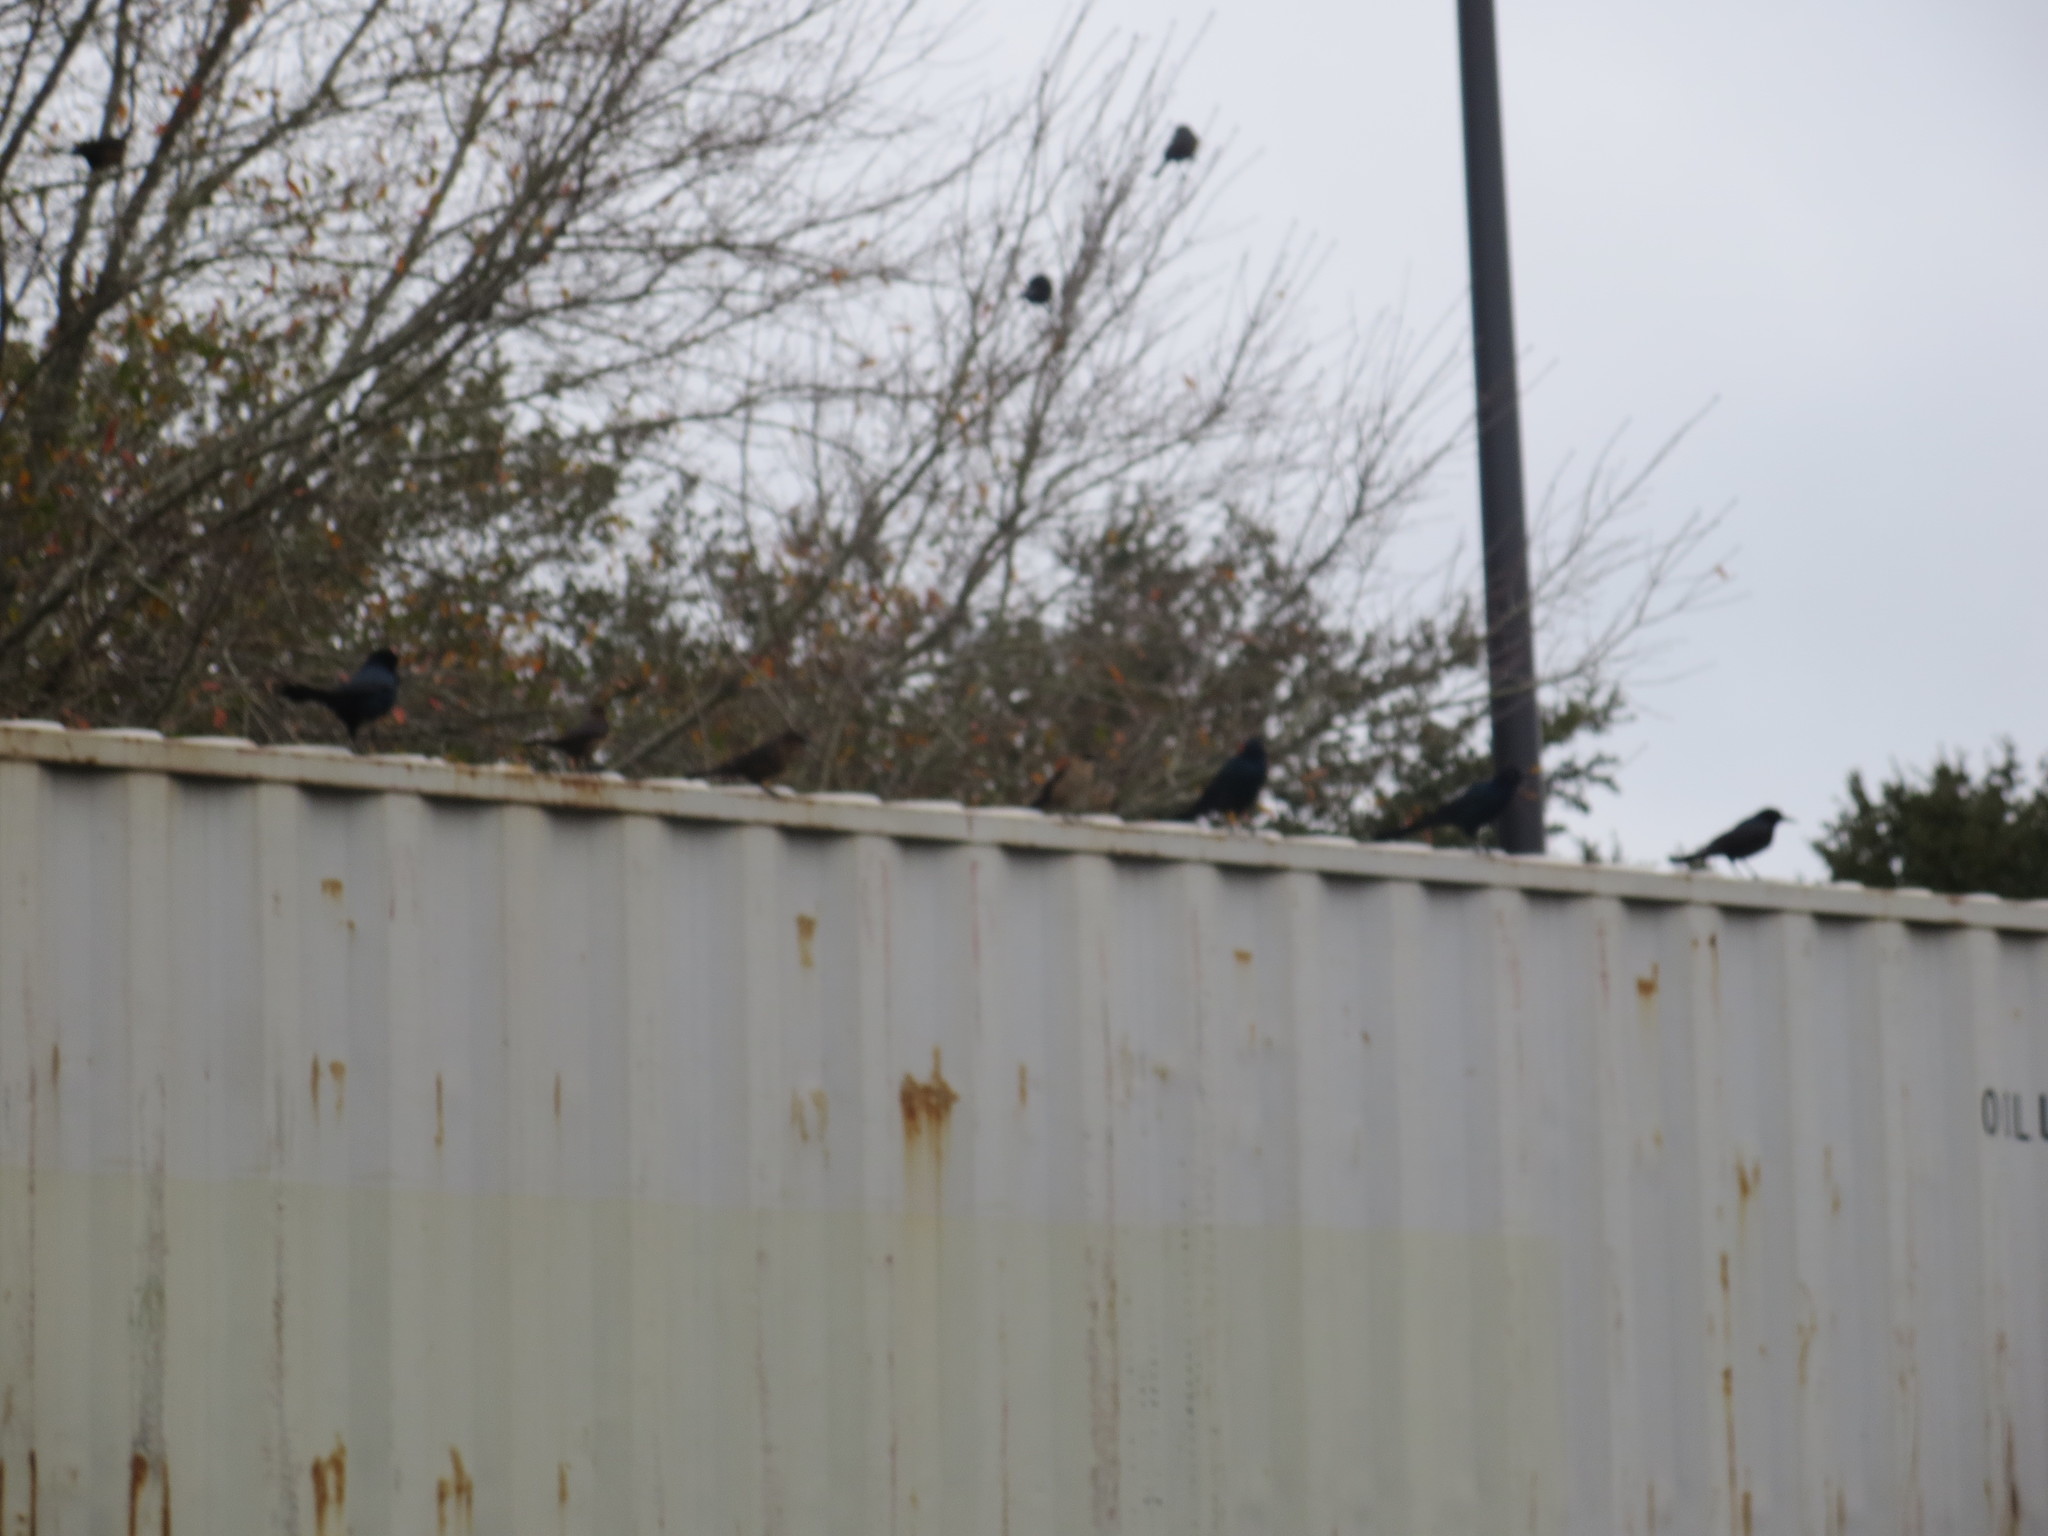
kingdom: Animalia
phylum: Chordata
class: Aves
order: Passeriformes
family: Icteridae
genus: Quiscalus
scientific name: Quiscalus major
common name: Boat-tailed grackle
